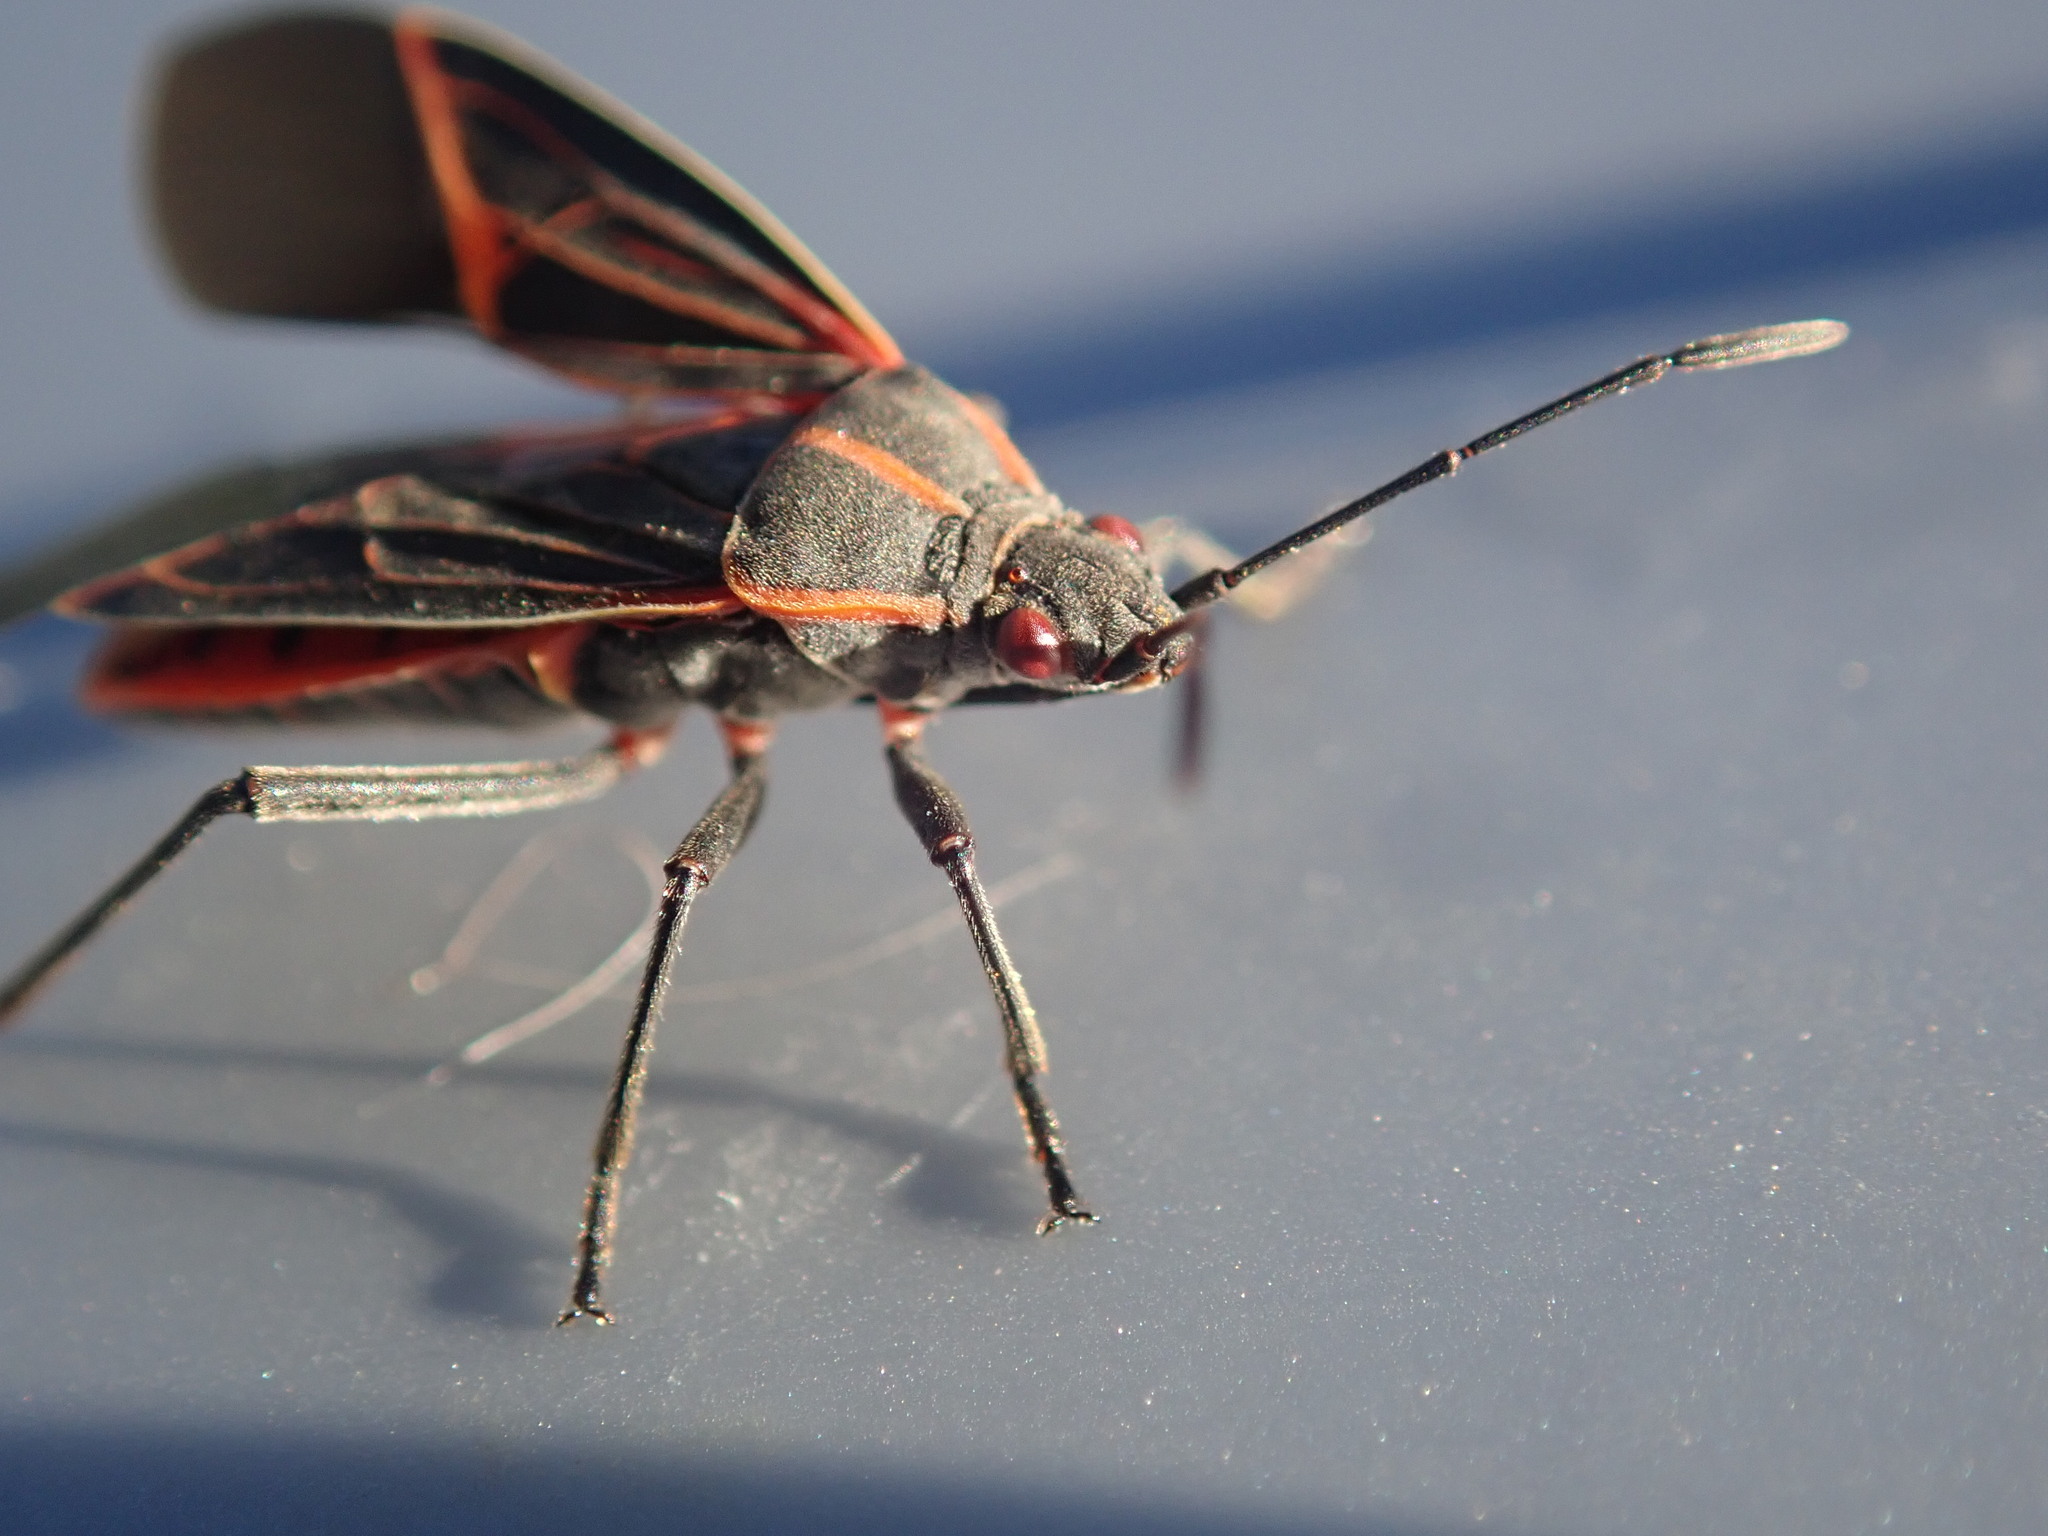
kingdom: Animalia
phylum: Arthropoda
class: Insecta
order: Hemiptera
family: Rhopalidae
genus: Boisea
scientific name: Boisea rubrolineata
